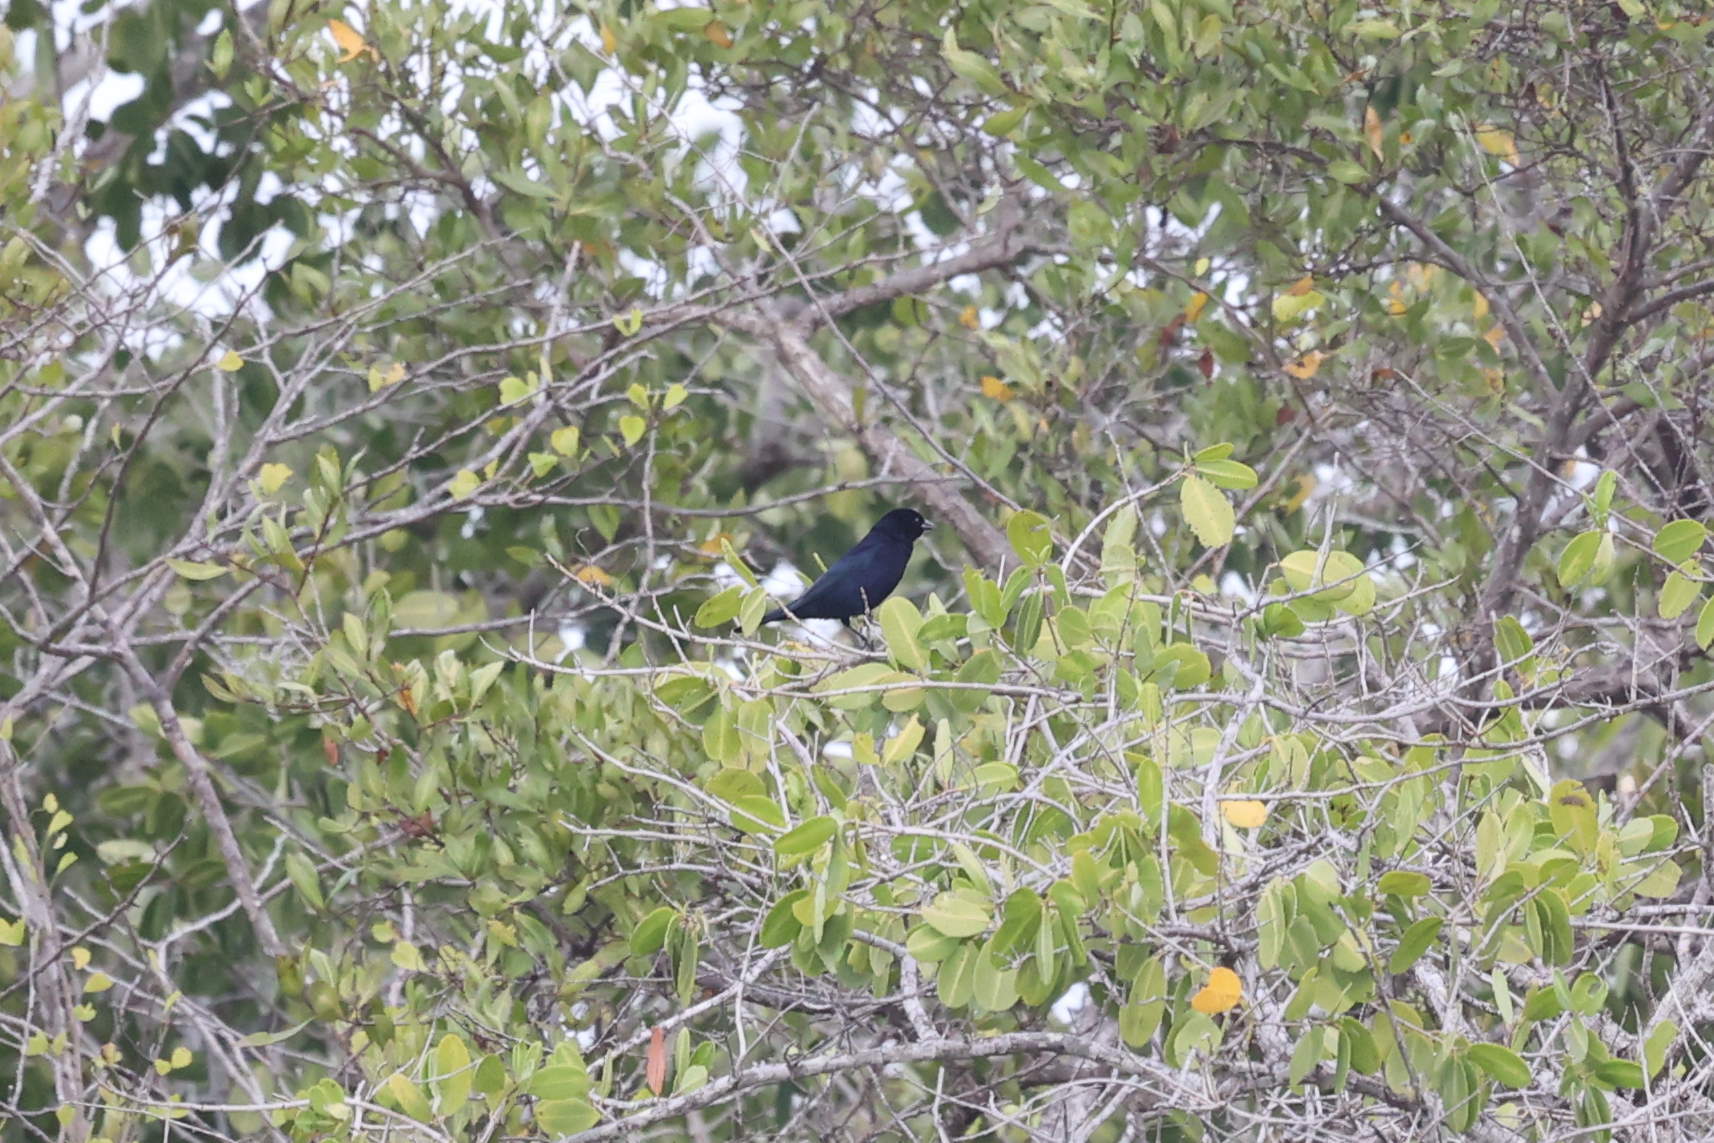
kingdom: Animalia
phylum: Chordata
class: Aves
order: Passeriformes
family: Icteridae
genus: Molothrus
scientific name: Molothrus bonariensis
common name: Shiny cowbird
